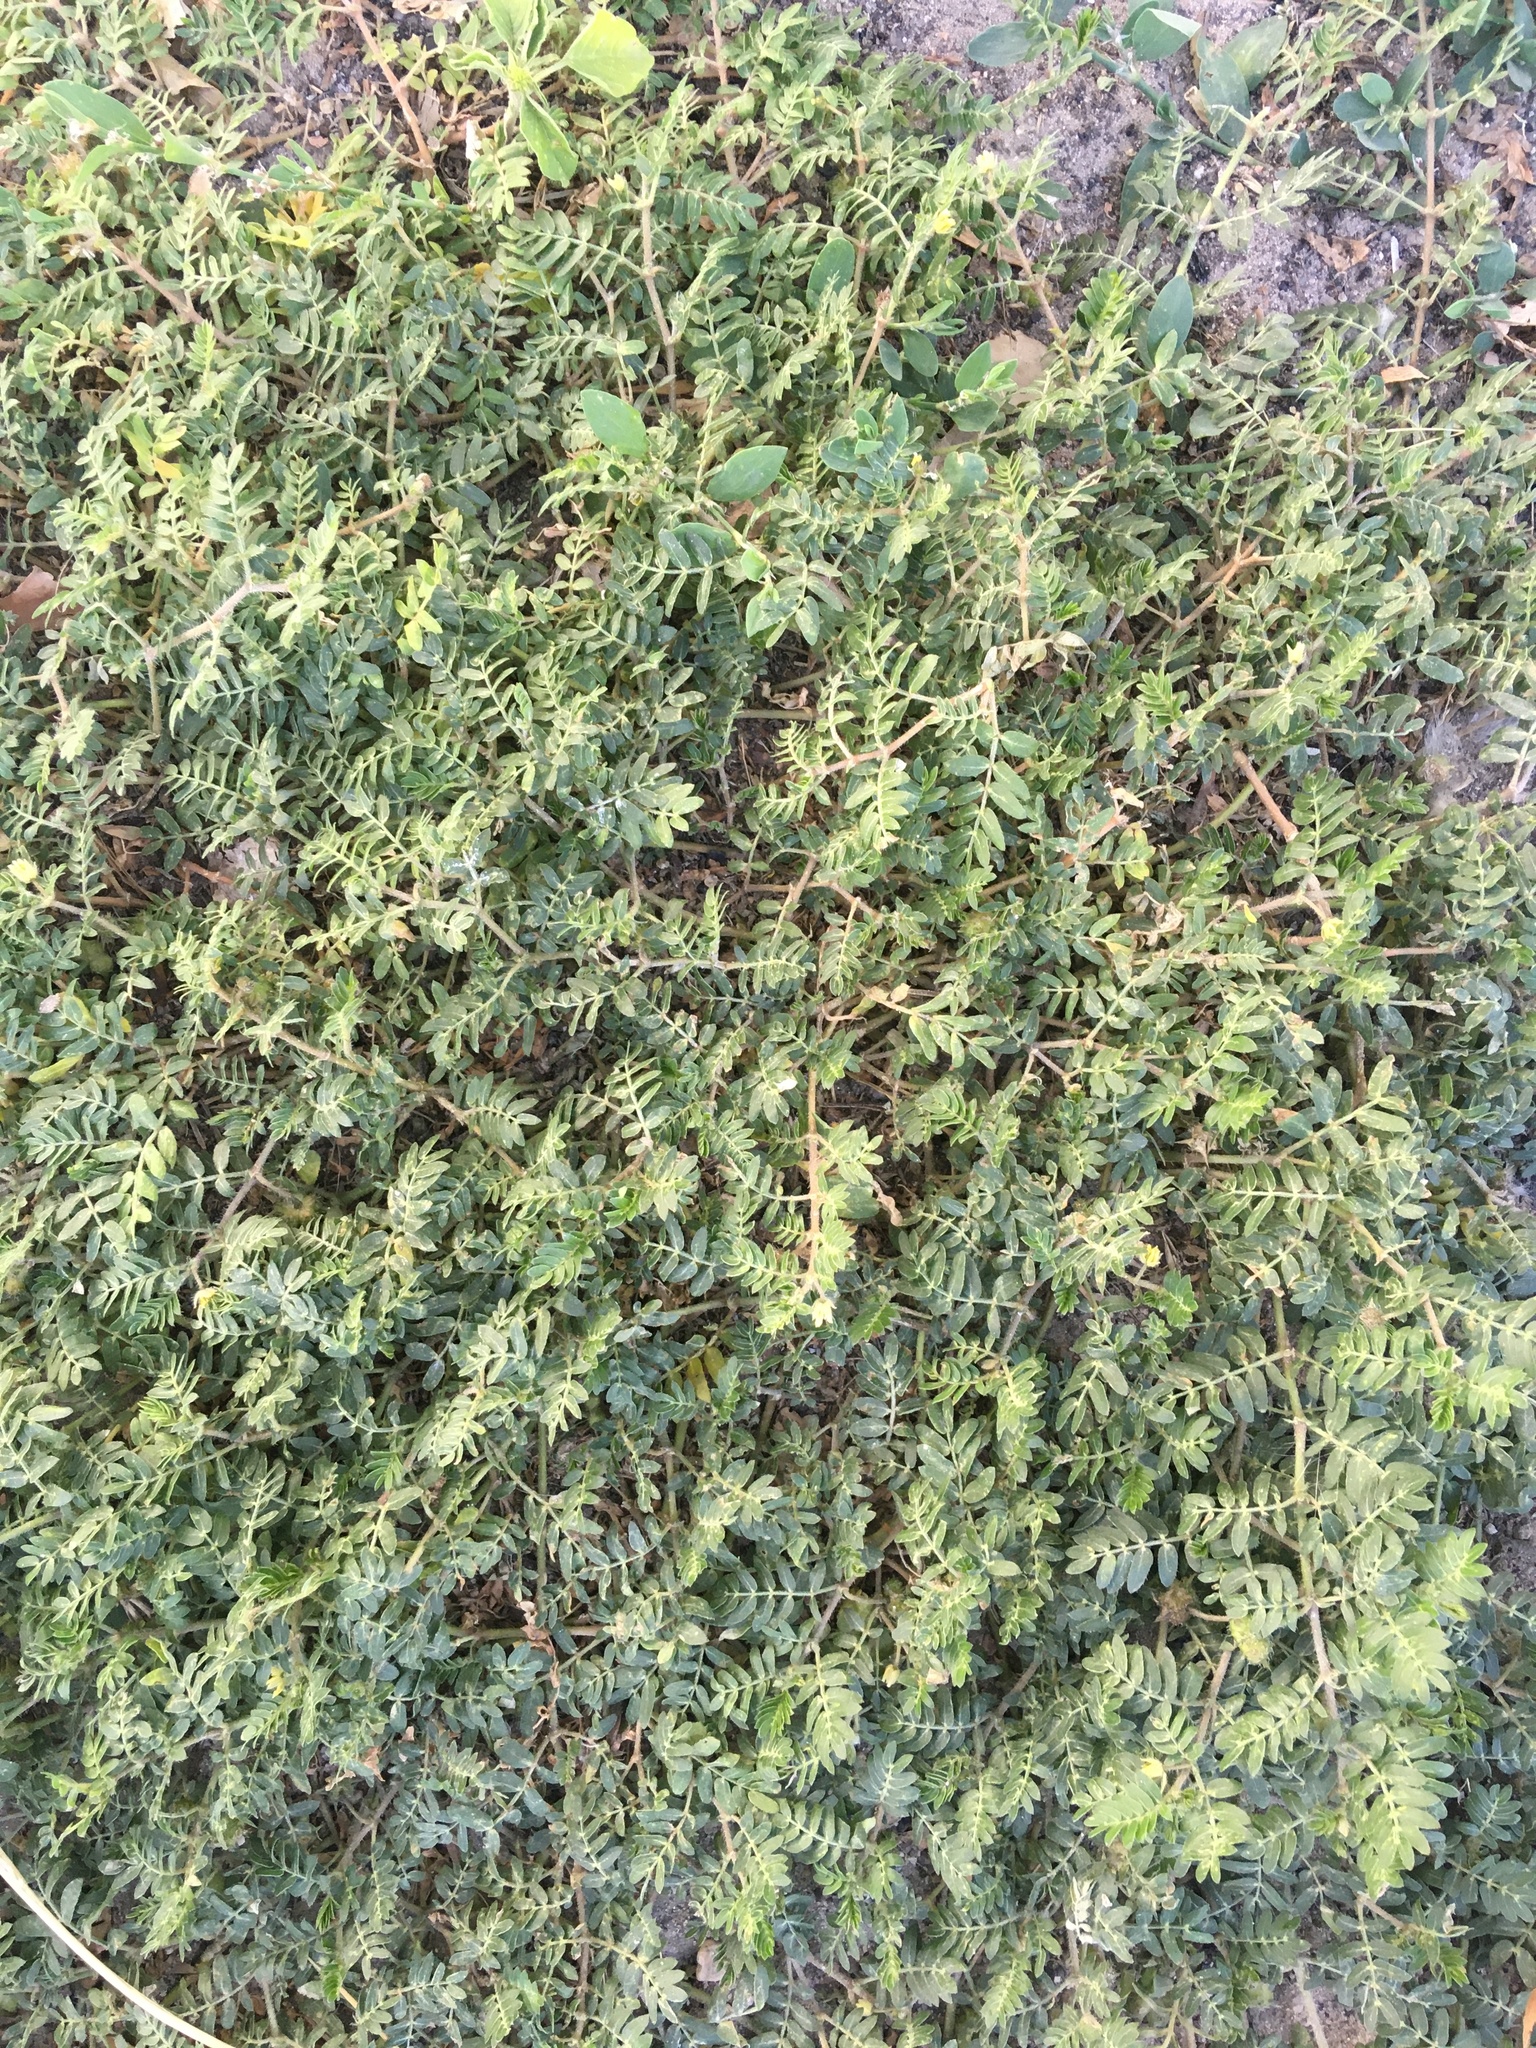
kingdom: Plantae
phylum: Tracheophyta
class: Magnoliopsida
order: Zygophyllales
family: Zygophyllaceae
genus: Tribulus
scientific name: Tribulus terrestris
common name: Puncturevine
